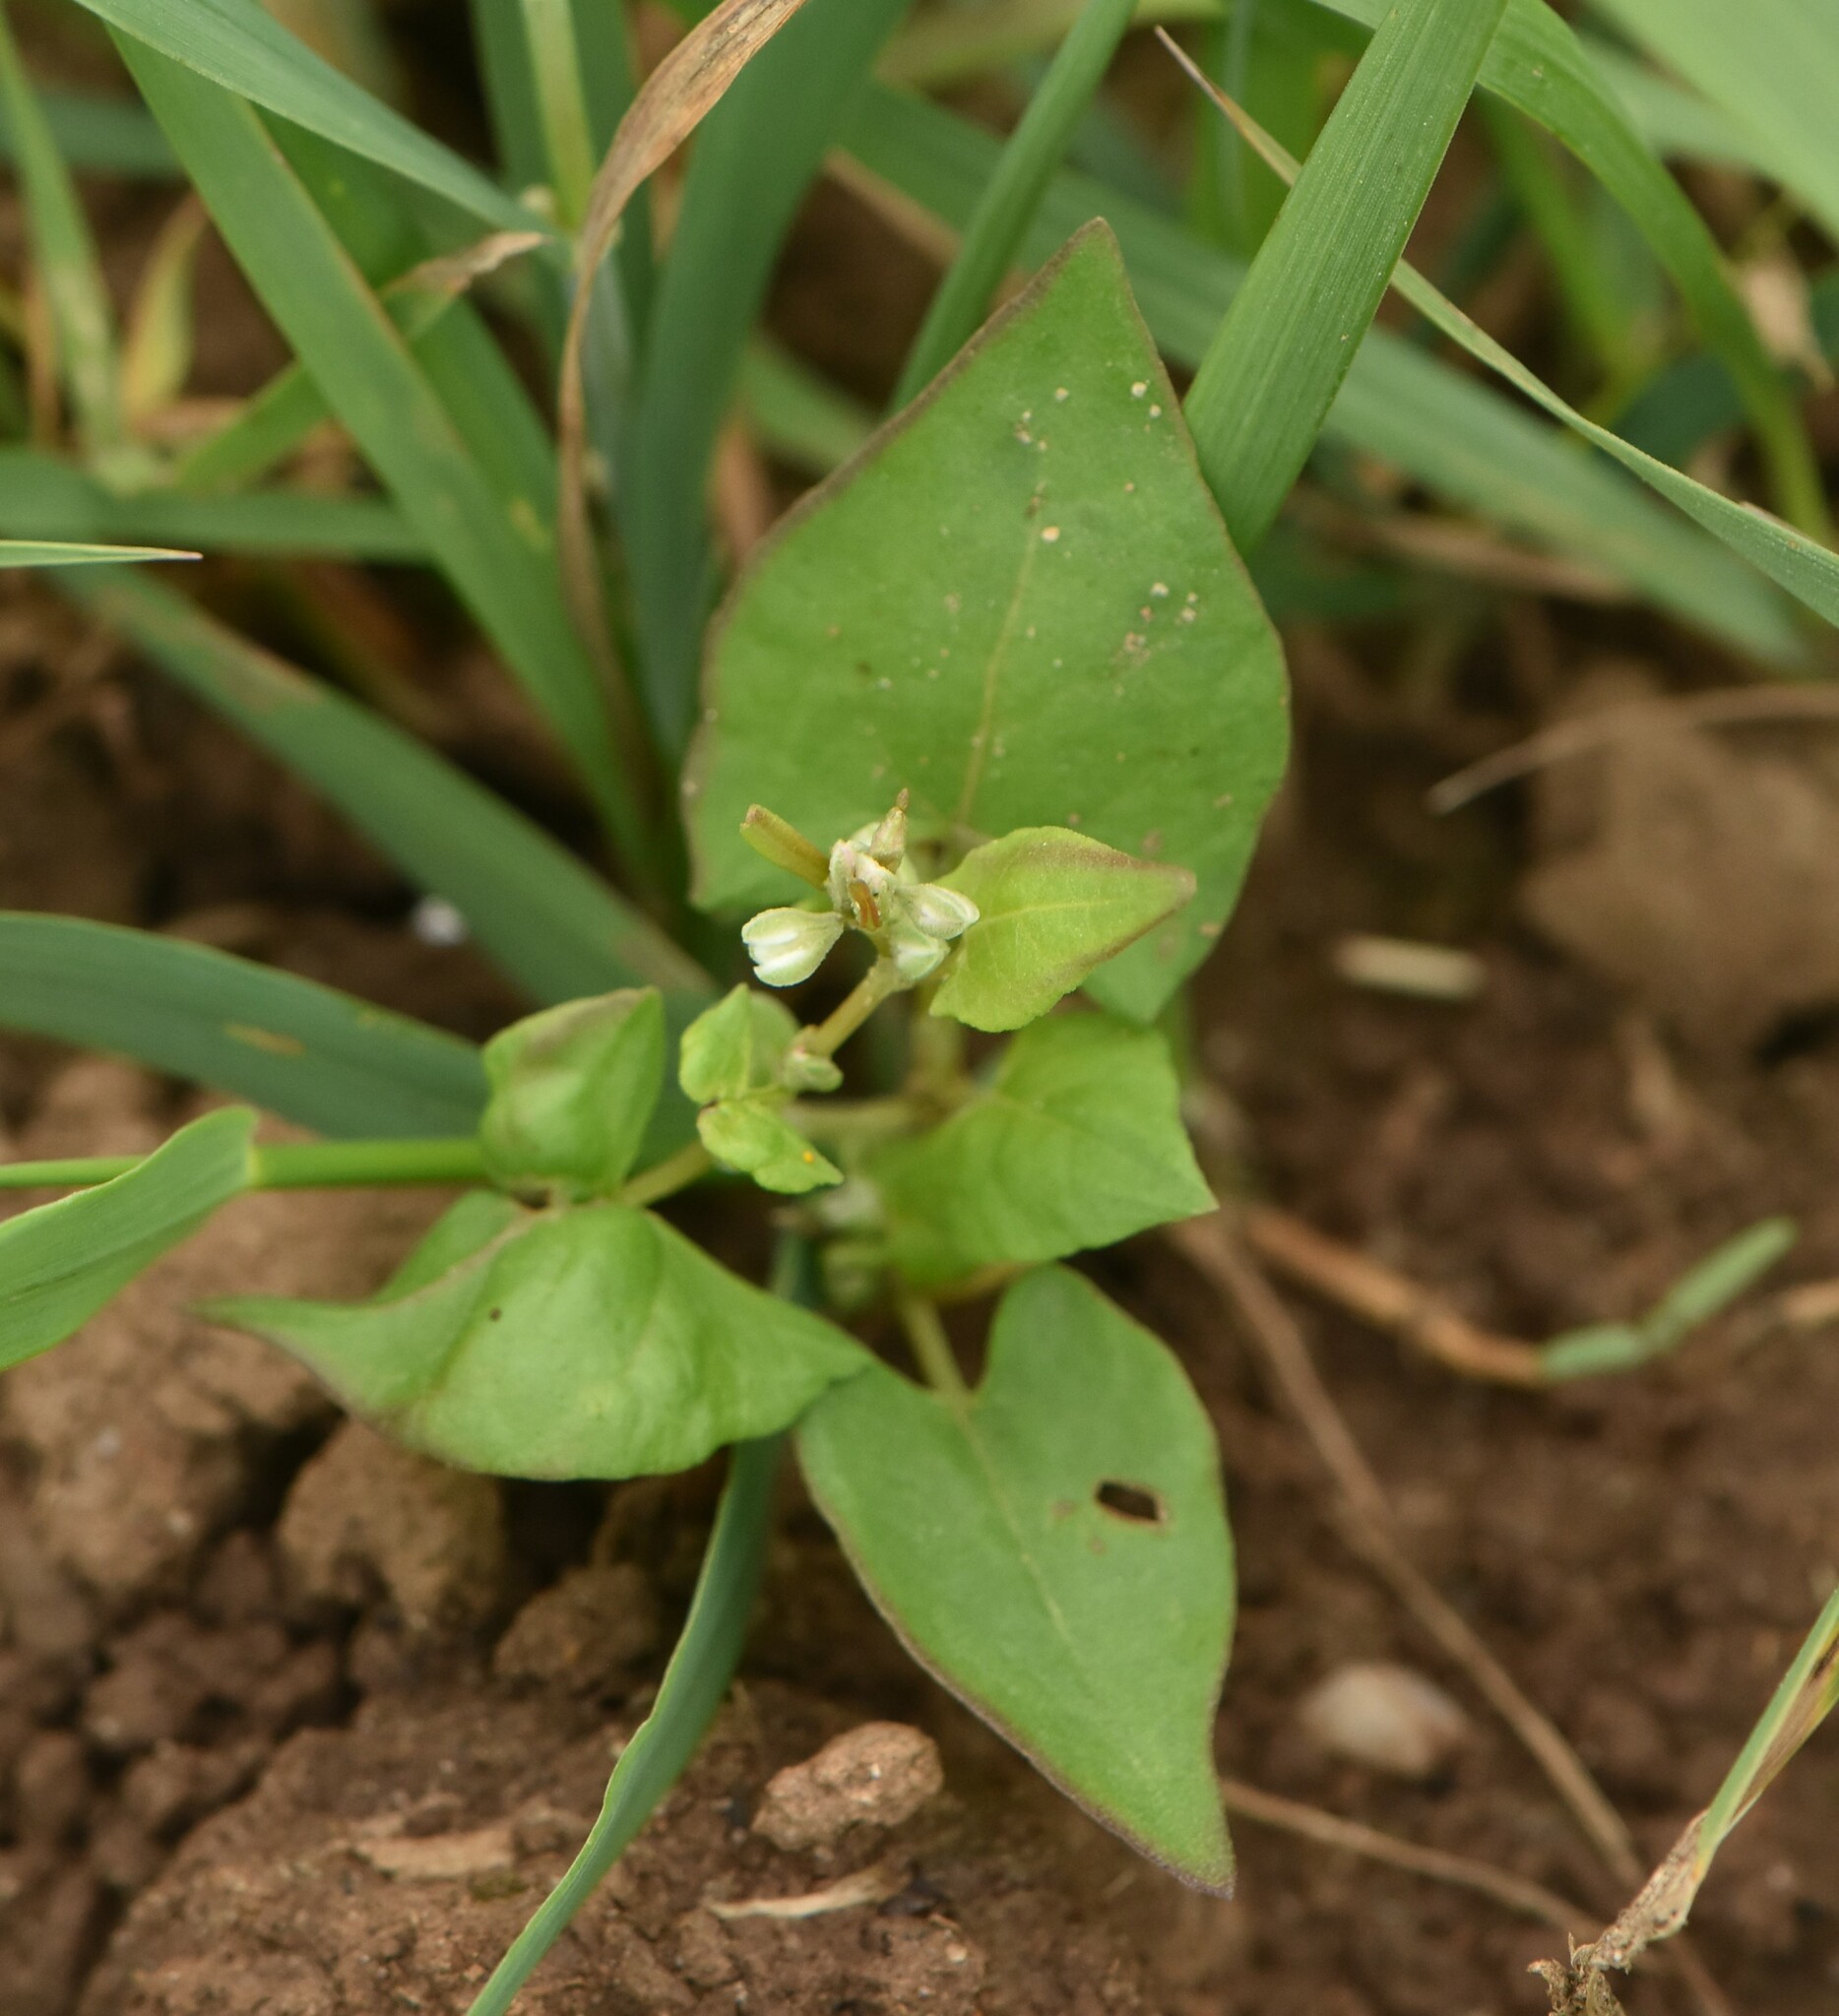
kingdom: Plantae
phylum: Tracheophyta
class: Magnoliopsida
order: Caryophyllales
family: Polygonaceae
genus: Fallopia
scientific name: Fallopia convolvulus
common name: Black bindweed
